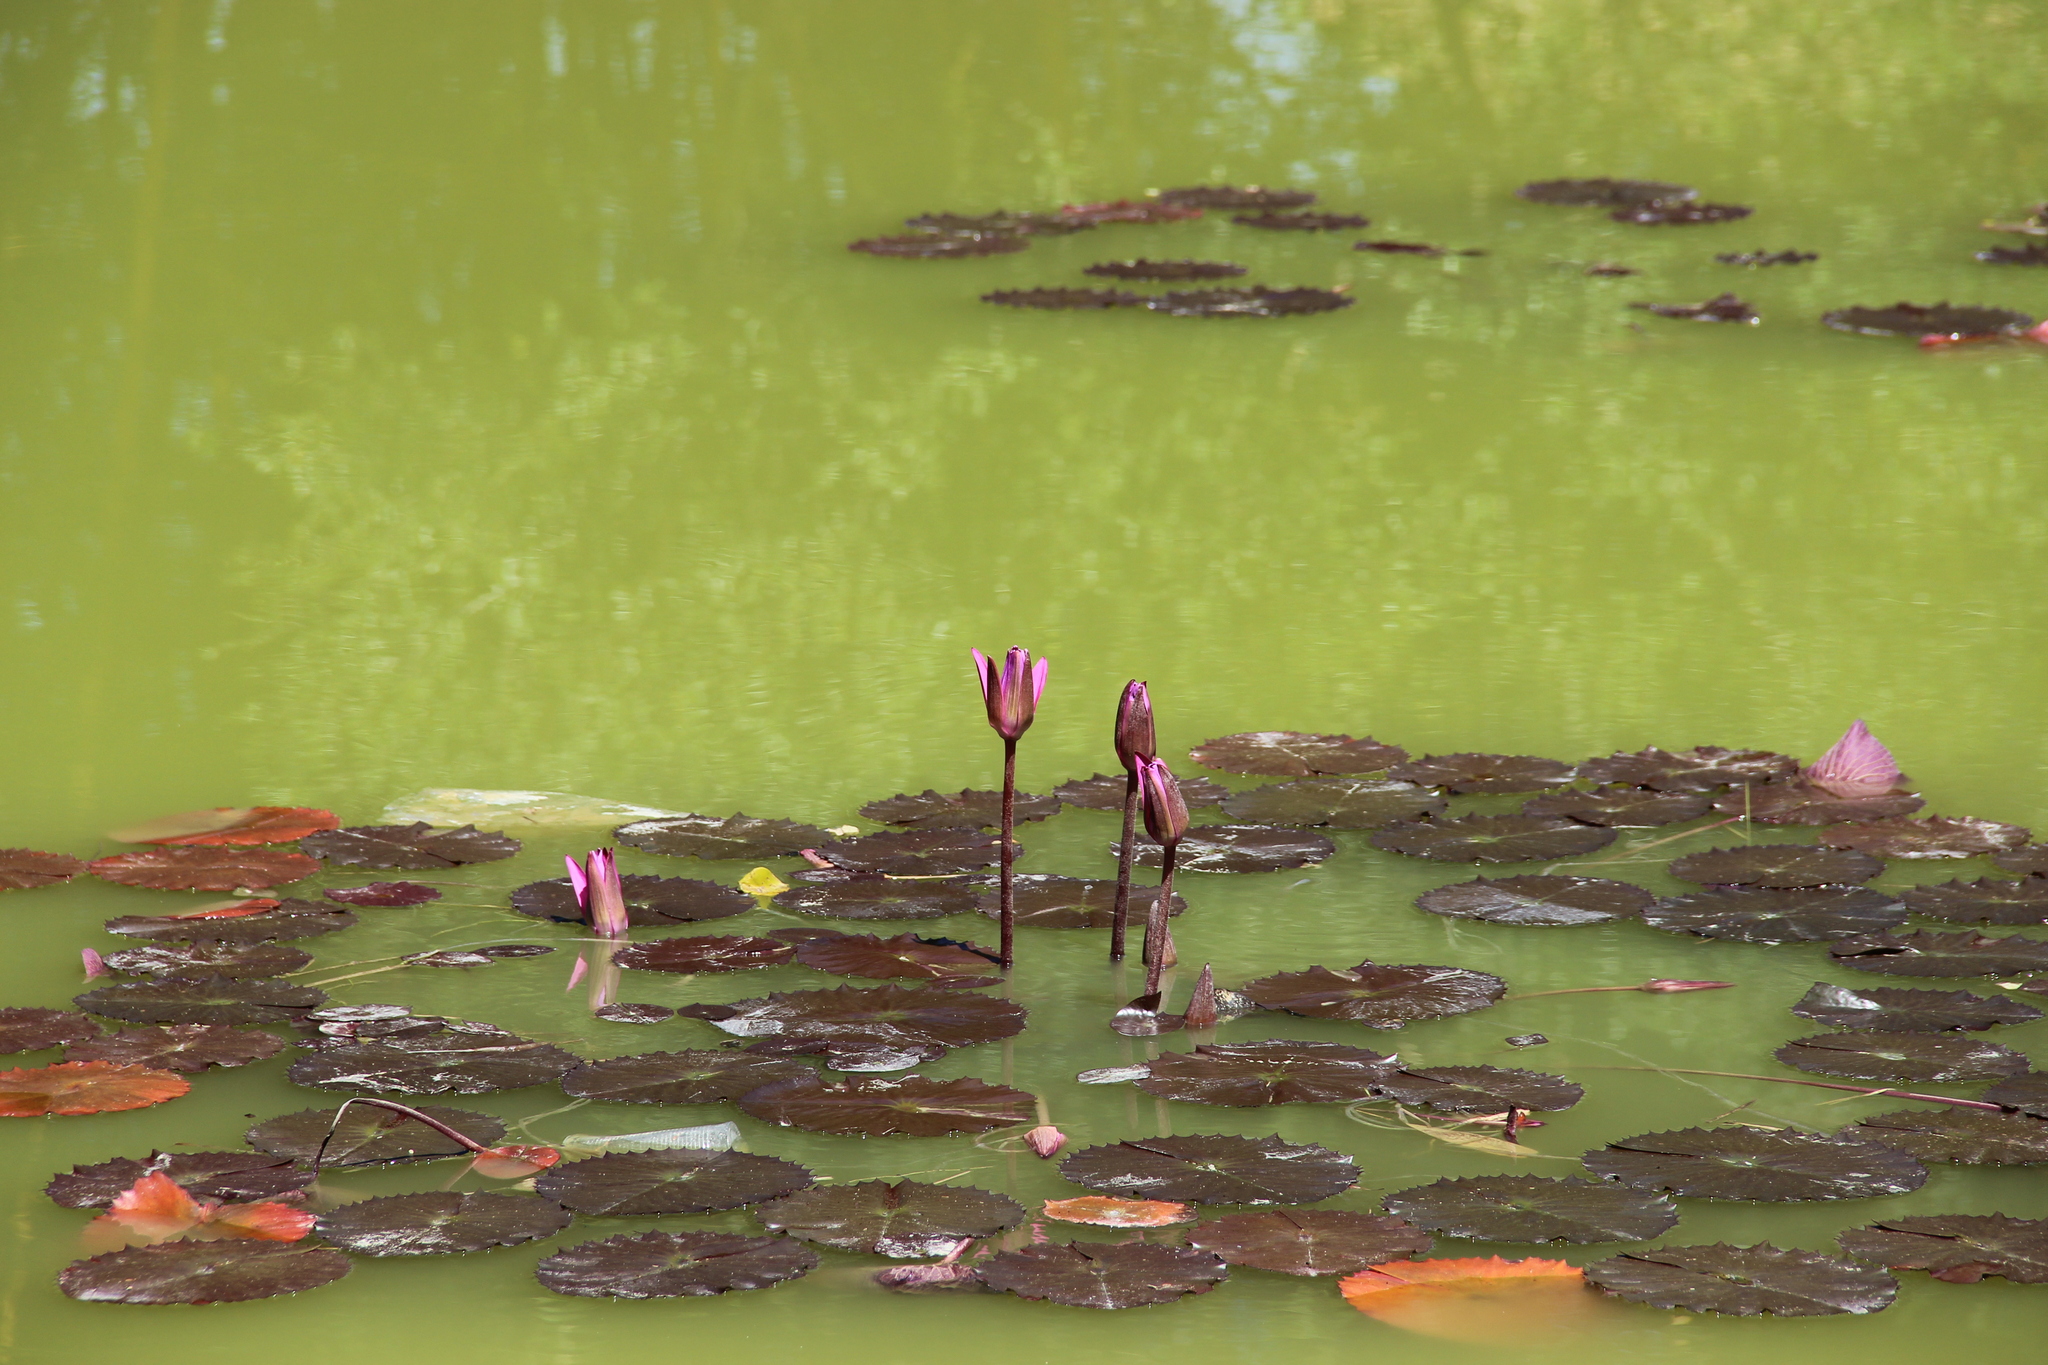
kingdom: Plantae
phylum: Tracheophyta
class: Magnoliopsida
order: Nymphaeales
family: Nymphaeaceae
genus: Nymphaea
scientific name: Nymphaea rubra
